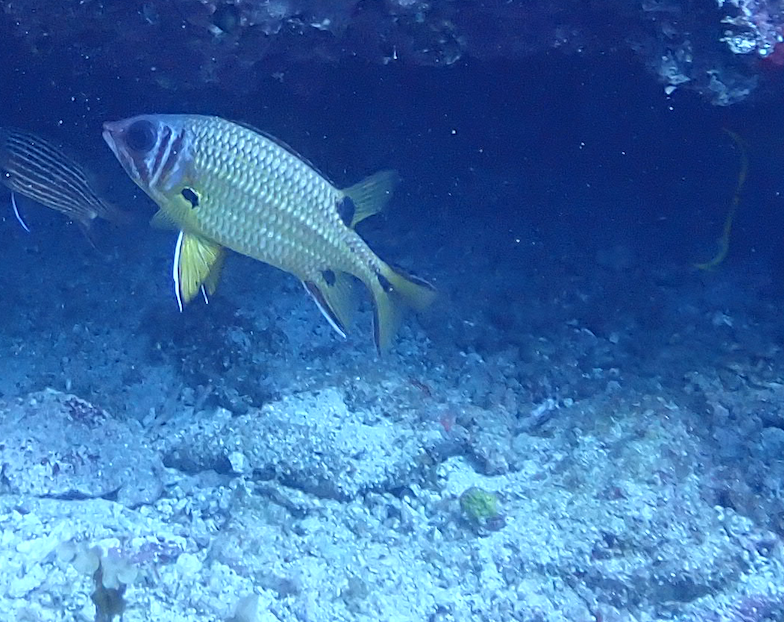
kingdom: Animalia
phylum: Chordata
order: Beryciformes
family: Holocentridae
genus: Sargocentron
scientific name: Sargocentron melanospilos
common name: Blackblotch squirrelfish
